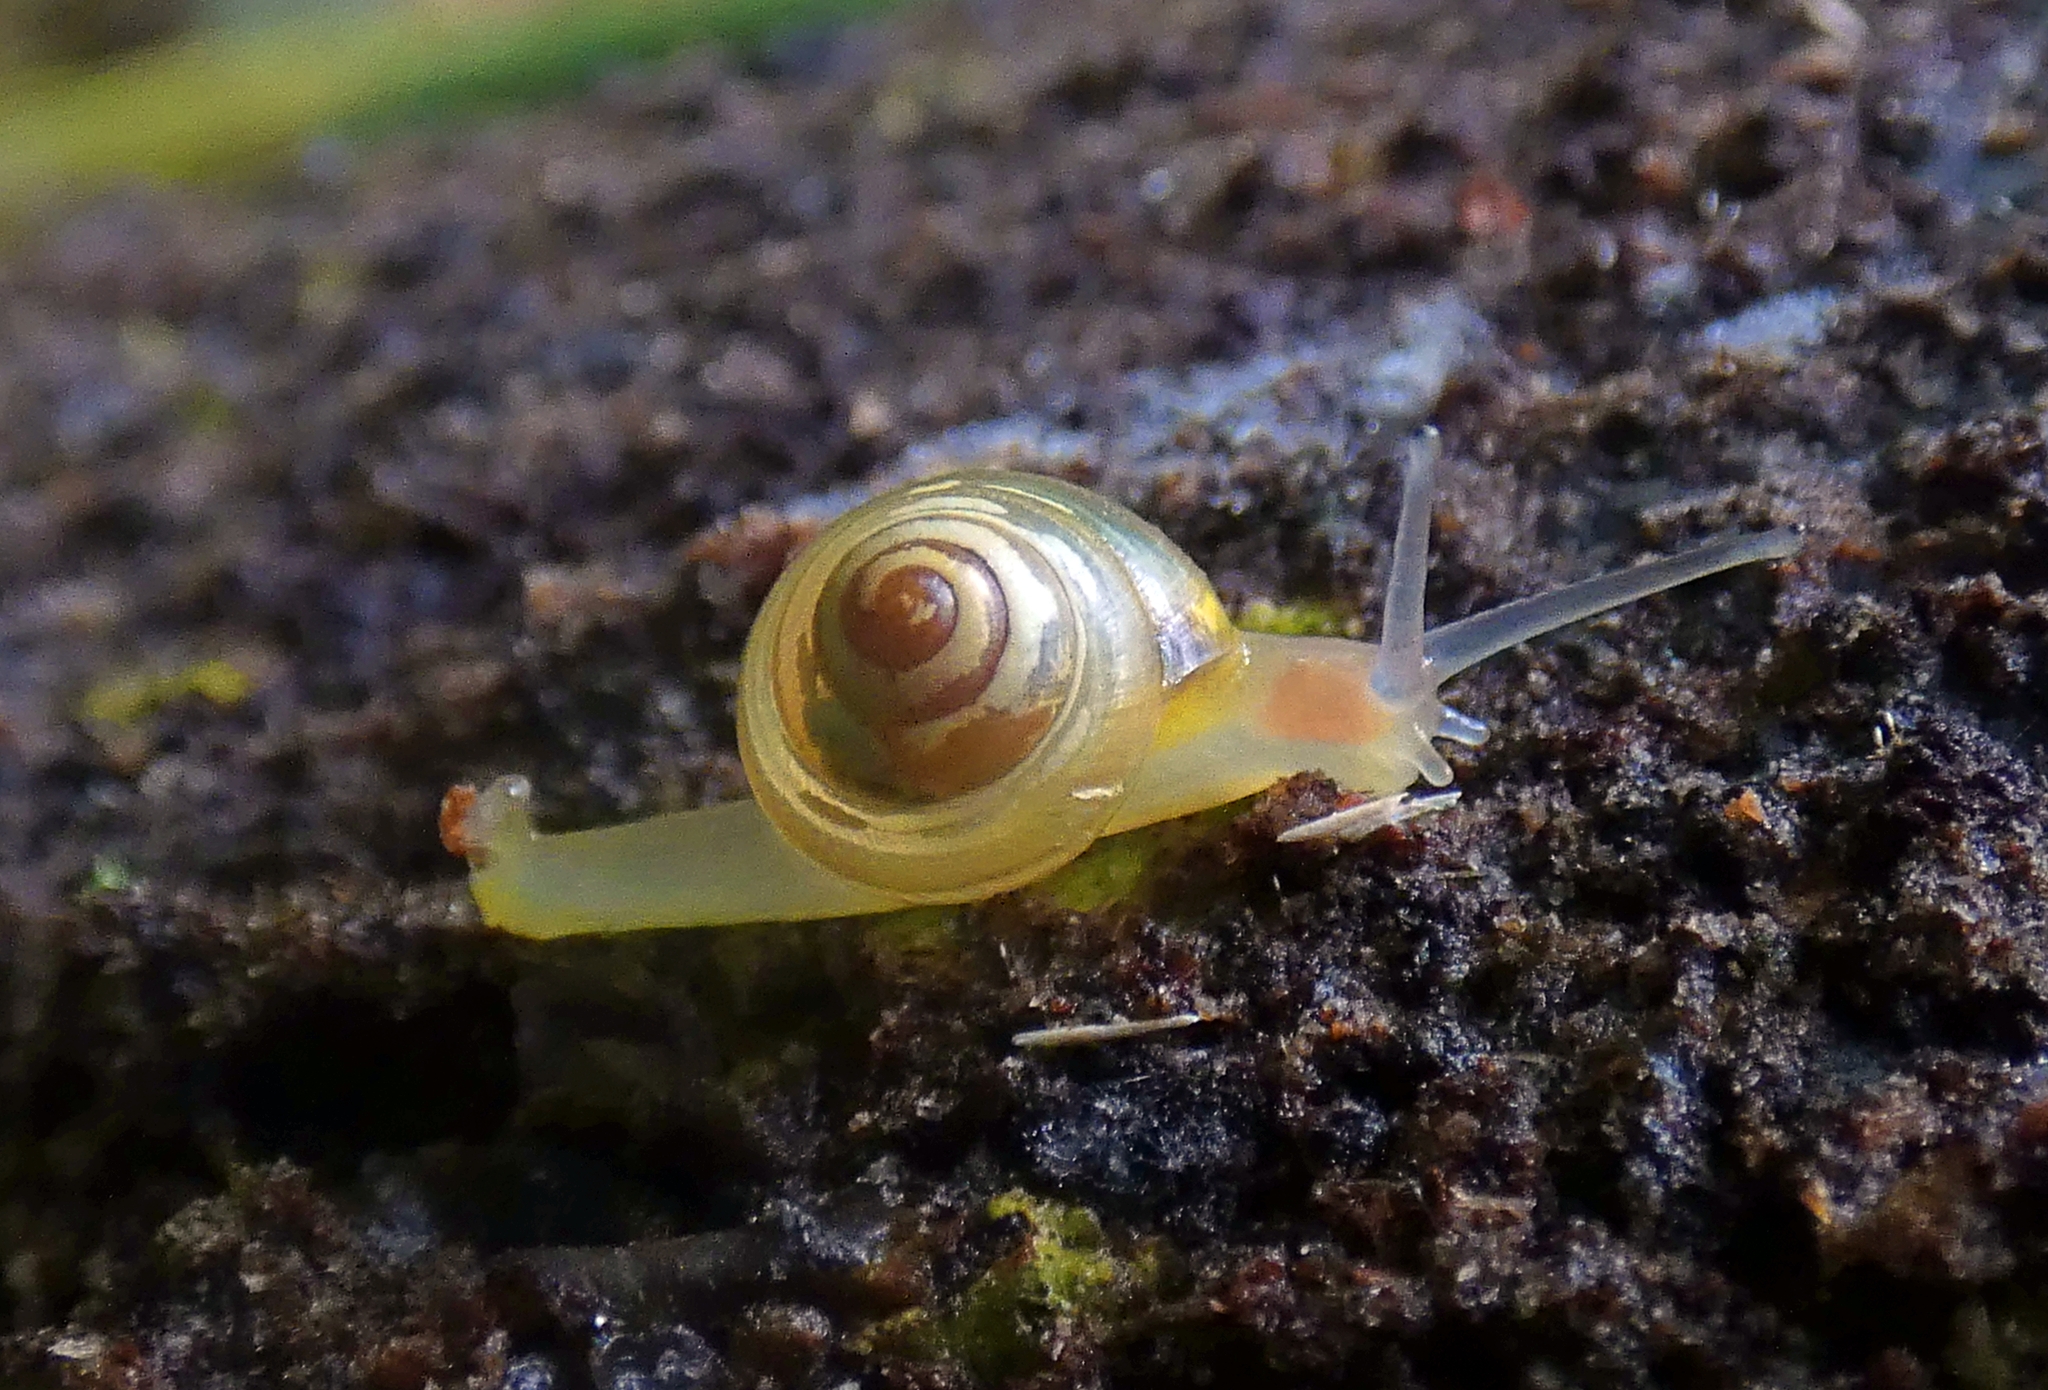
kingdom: Animalia
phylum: Mollusca
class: Gastropoda
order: Stylommatophora
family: Euconulidae
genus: Coneuplecta
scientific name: Coneuplecta pampini
